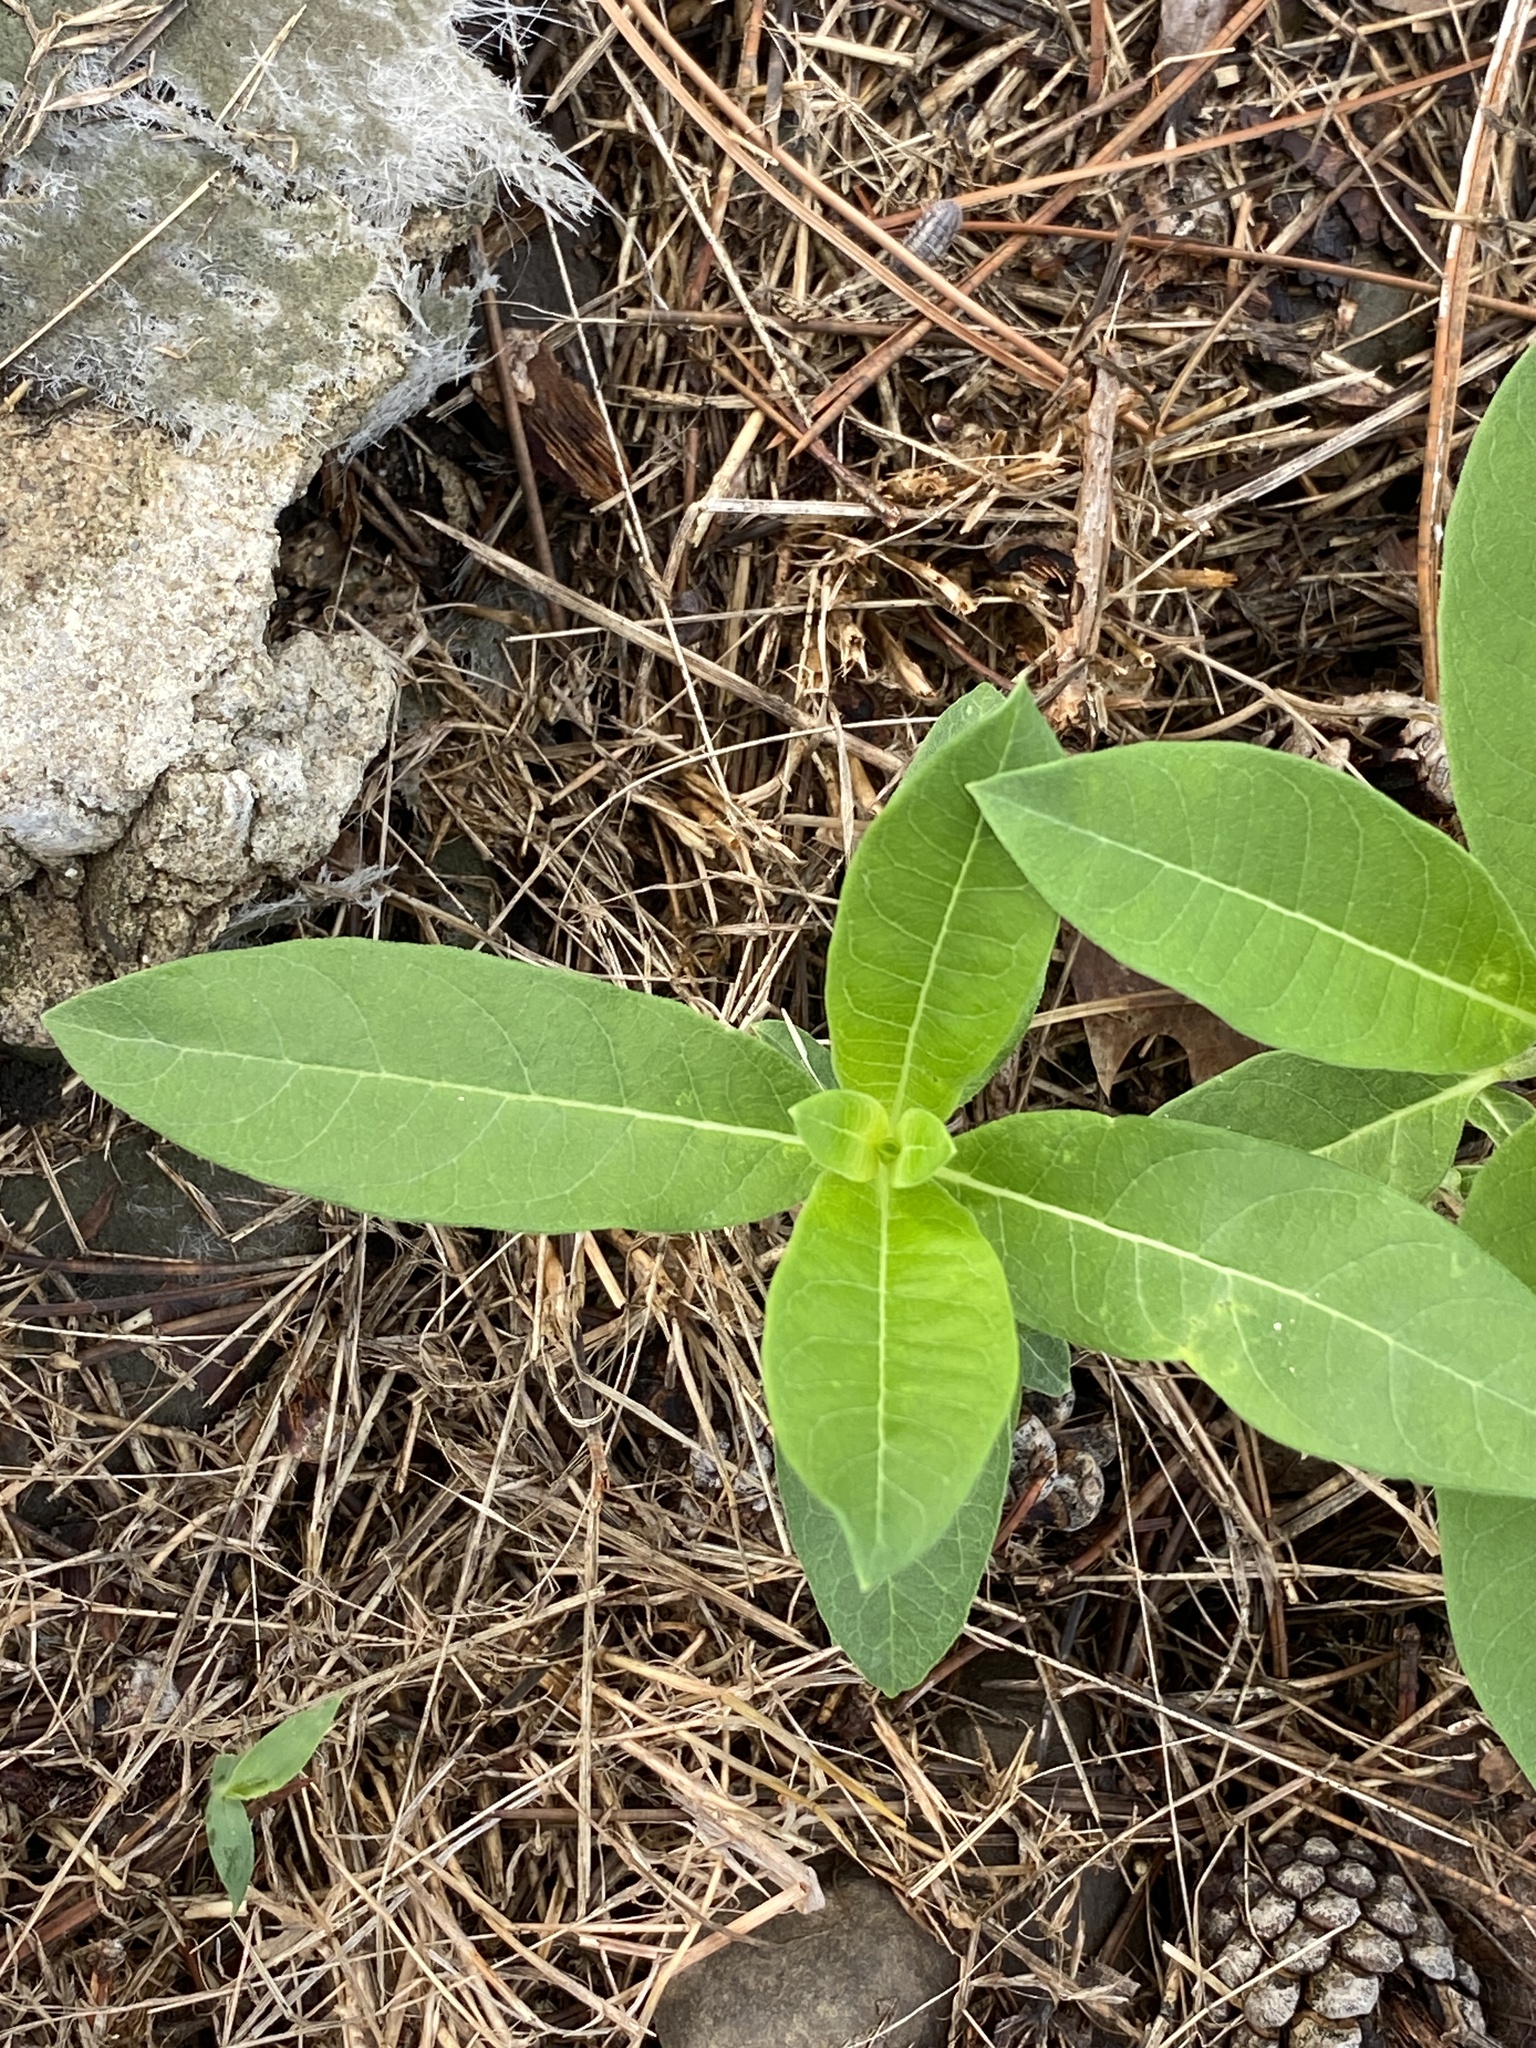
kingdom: Plantae
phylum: Tracheophyta
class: Magnoliopsida
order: Gentianales
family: Apocynaceae
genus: Asclepias
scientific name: Asclepias syriaca
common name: Common milkweed
